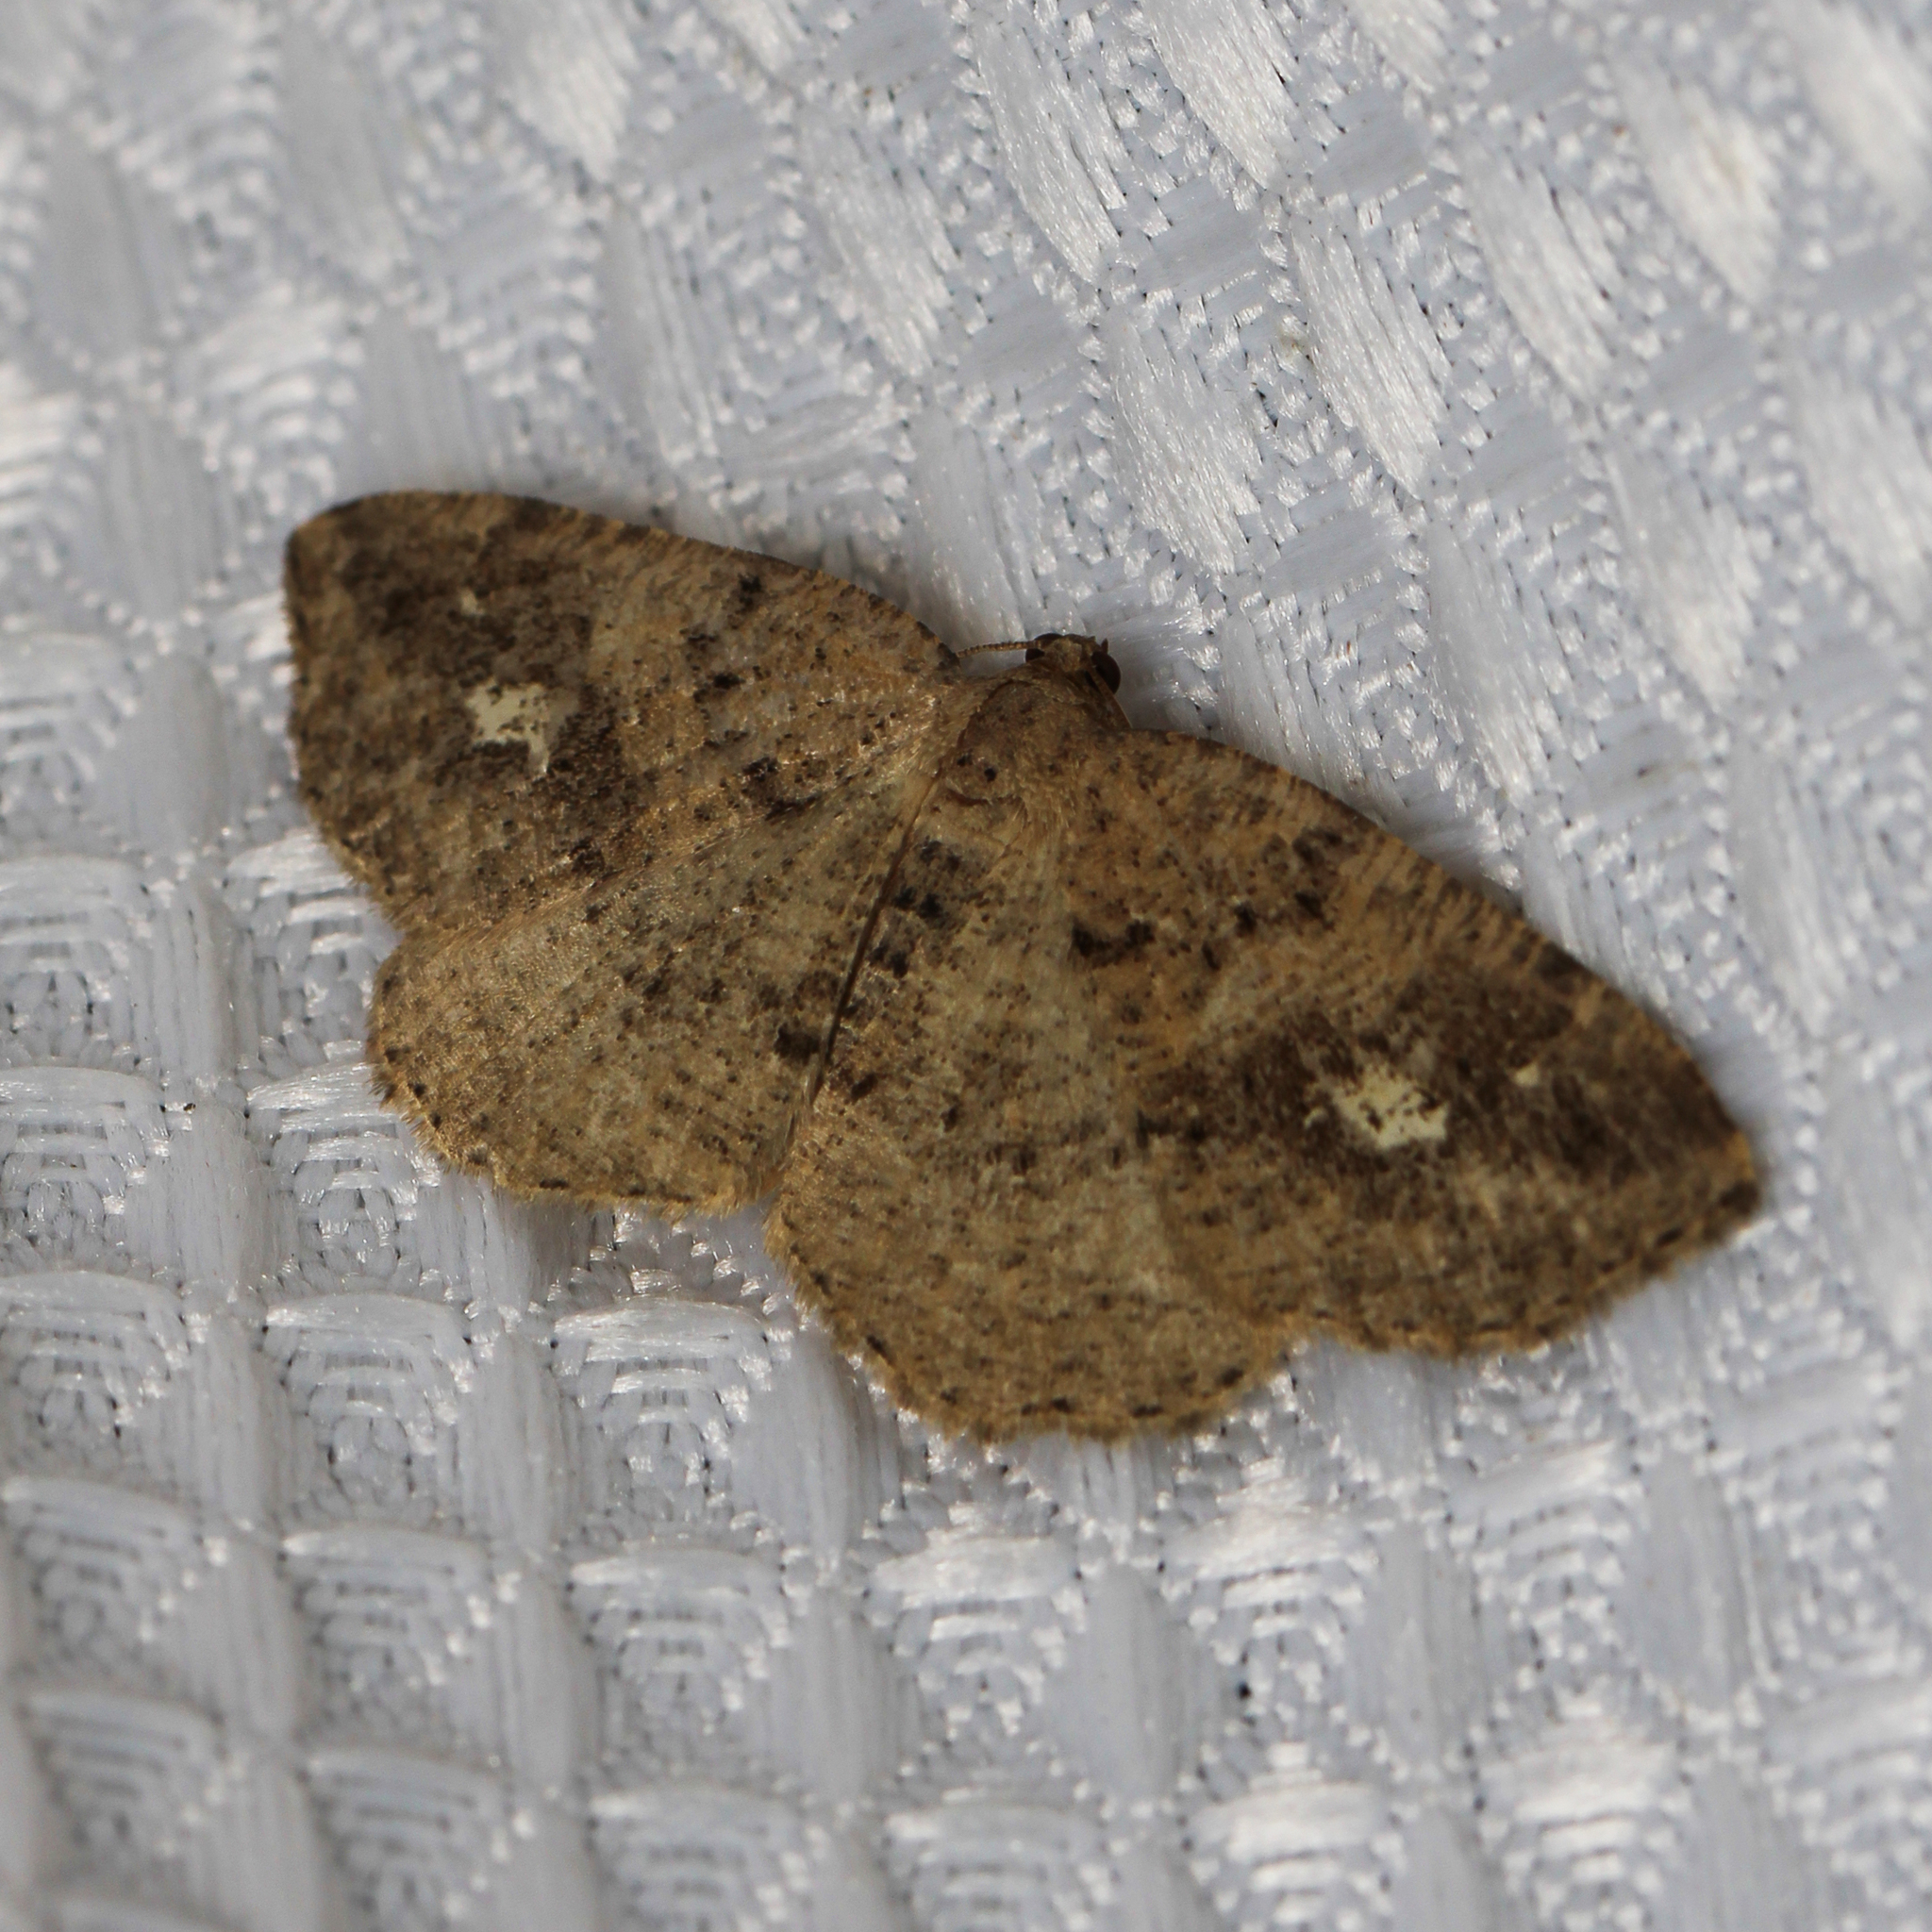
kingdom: Animalia
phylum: Arthropoda
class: Insecta
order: Lepidoptera
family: Geometridae
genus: Homochlodes
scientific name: Homochlodes fritillaria
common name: Pale homochlodes
